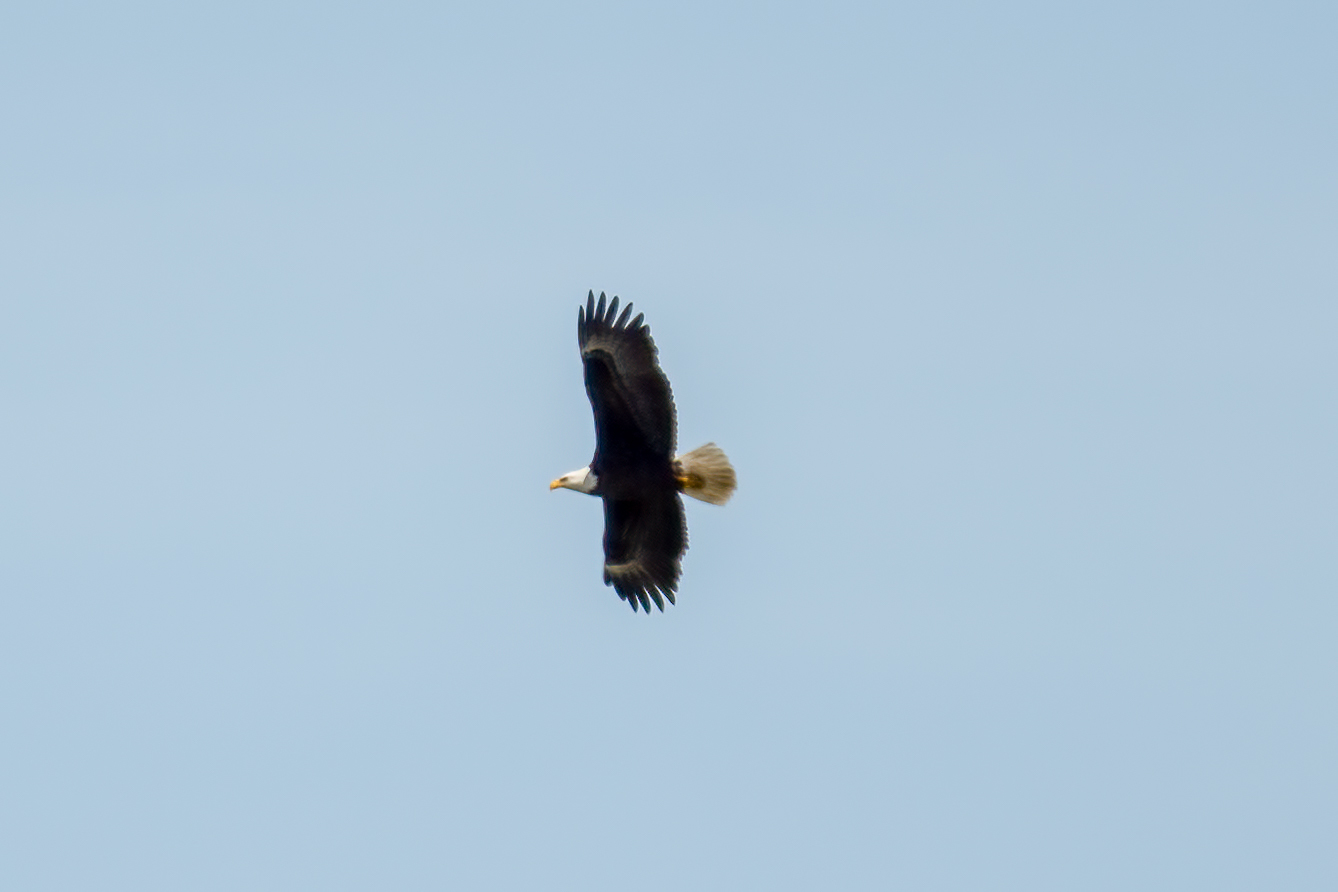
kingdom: Animalia
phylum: Chordata
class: Aves
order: Accipitriformes
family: Accipitridae
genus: Haliaeetus
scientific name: Haliaeetus leucocephalus
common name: Bald eagle
